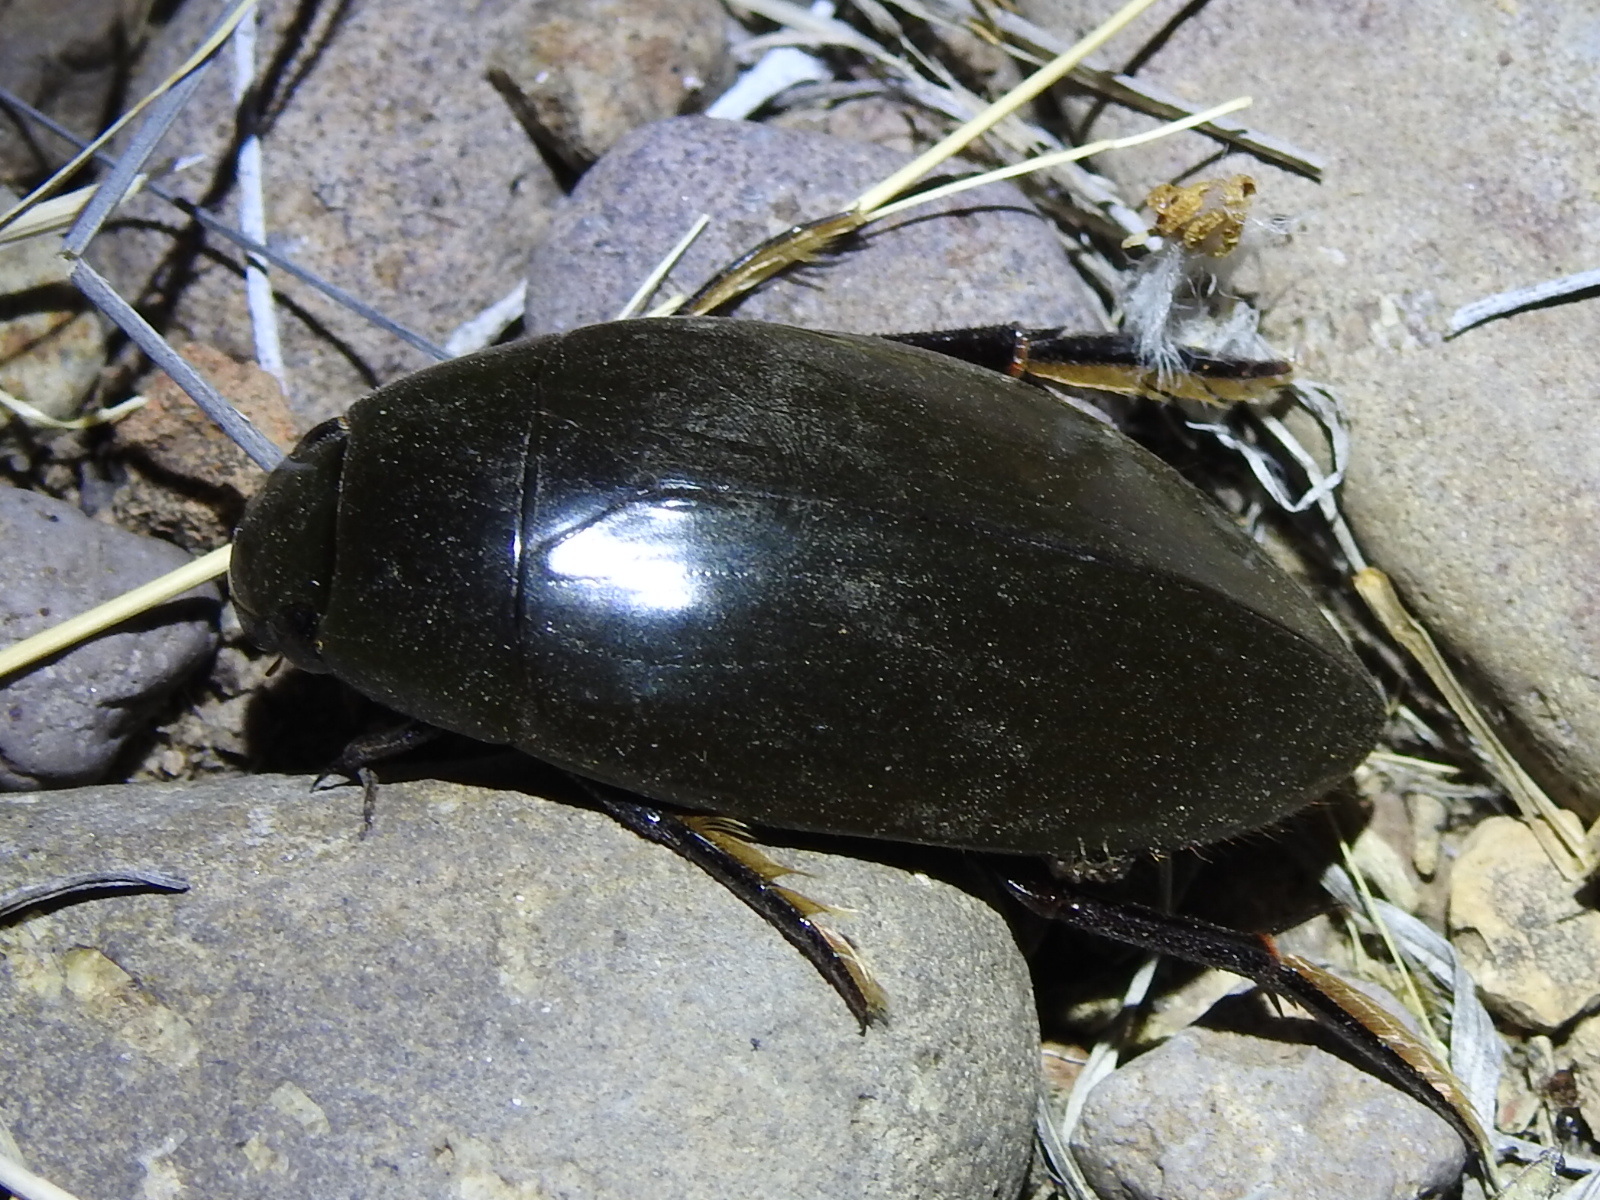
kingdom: Animalia
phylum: Arthropoda
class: Insecta
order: Coleoptera
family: Hydrophilidae
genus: Hydrophilus
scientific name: Hydrophilus triangularis
